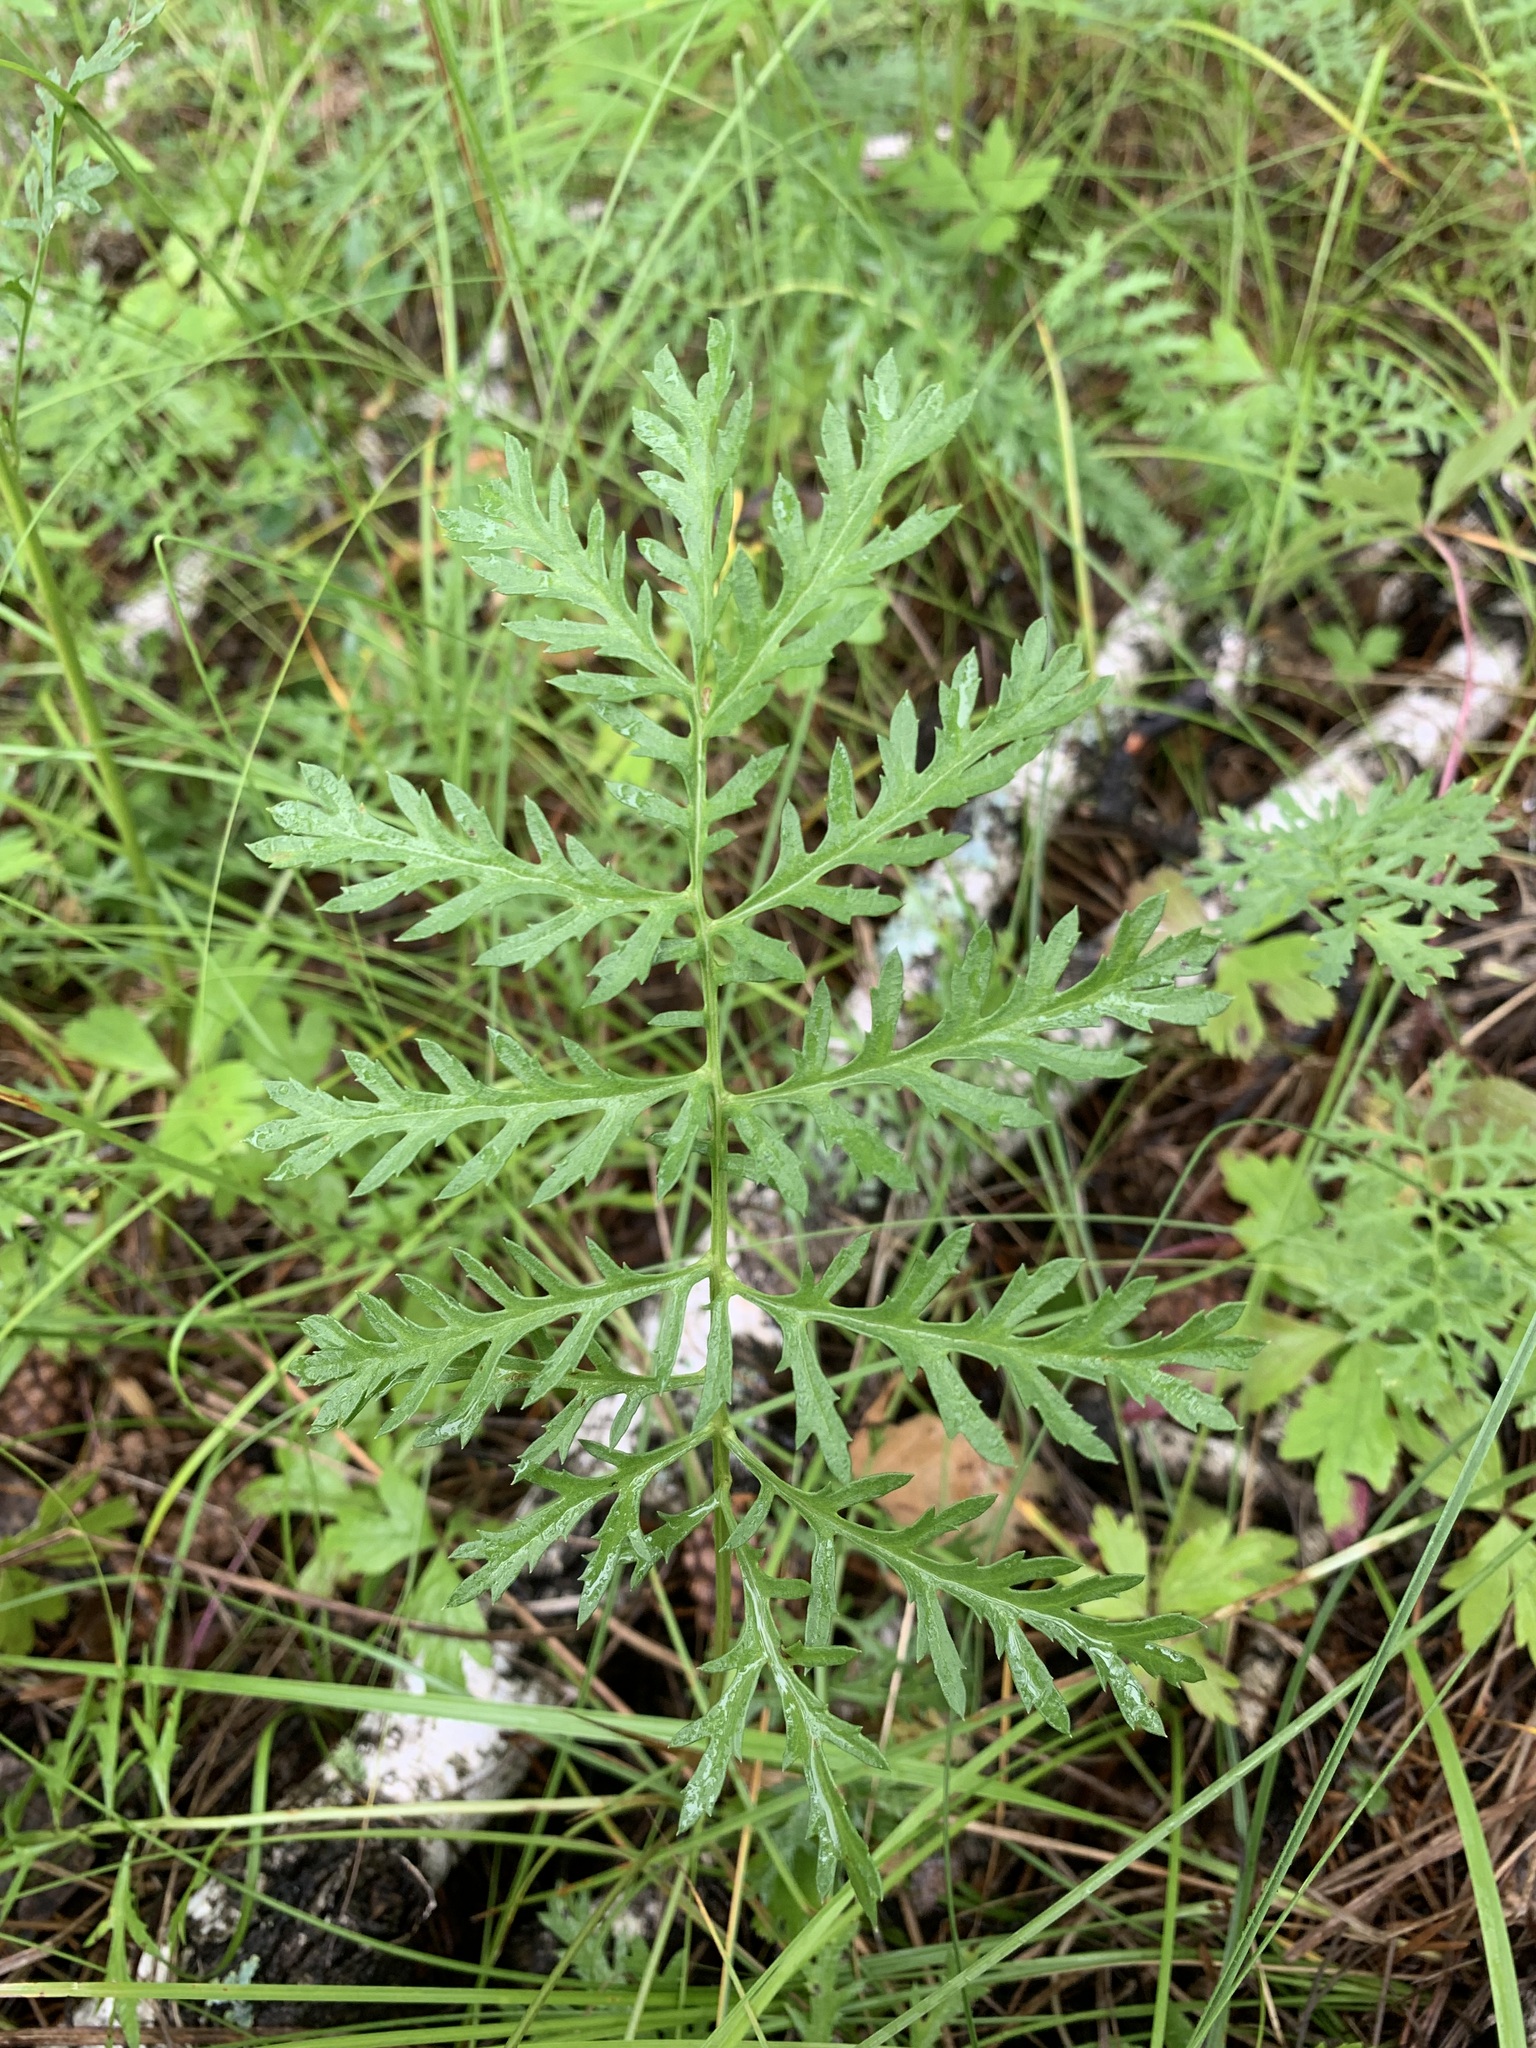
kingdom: Plantae
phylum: Tracheophyta
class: Magnoliopsida
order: Asterales
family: Asteraceae
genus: Artemisia
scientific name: Artemisia latifolia
